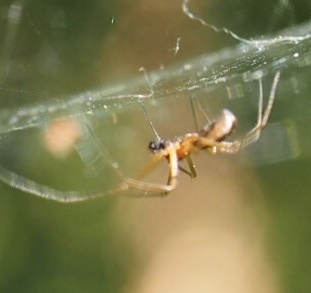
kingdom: Animalia
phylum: Arthropoda
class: Arachnida
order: Araneae
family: Linyphiidae
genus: Neriene
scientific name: Neriene peltata
